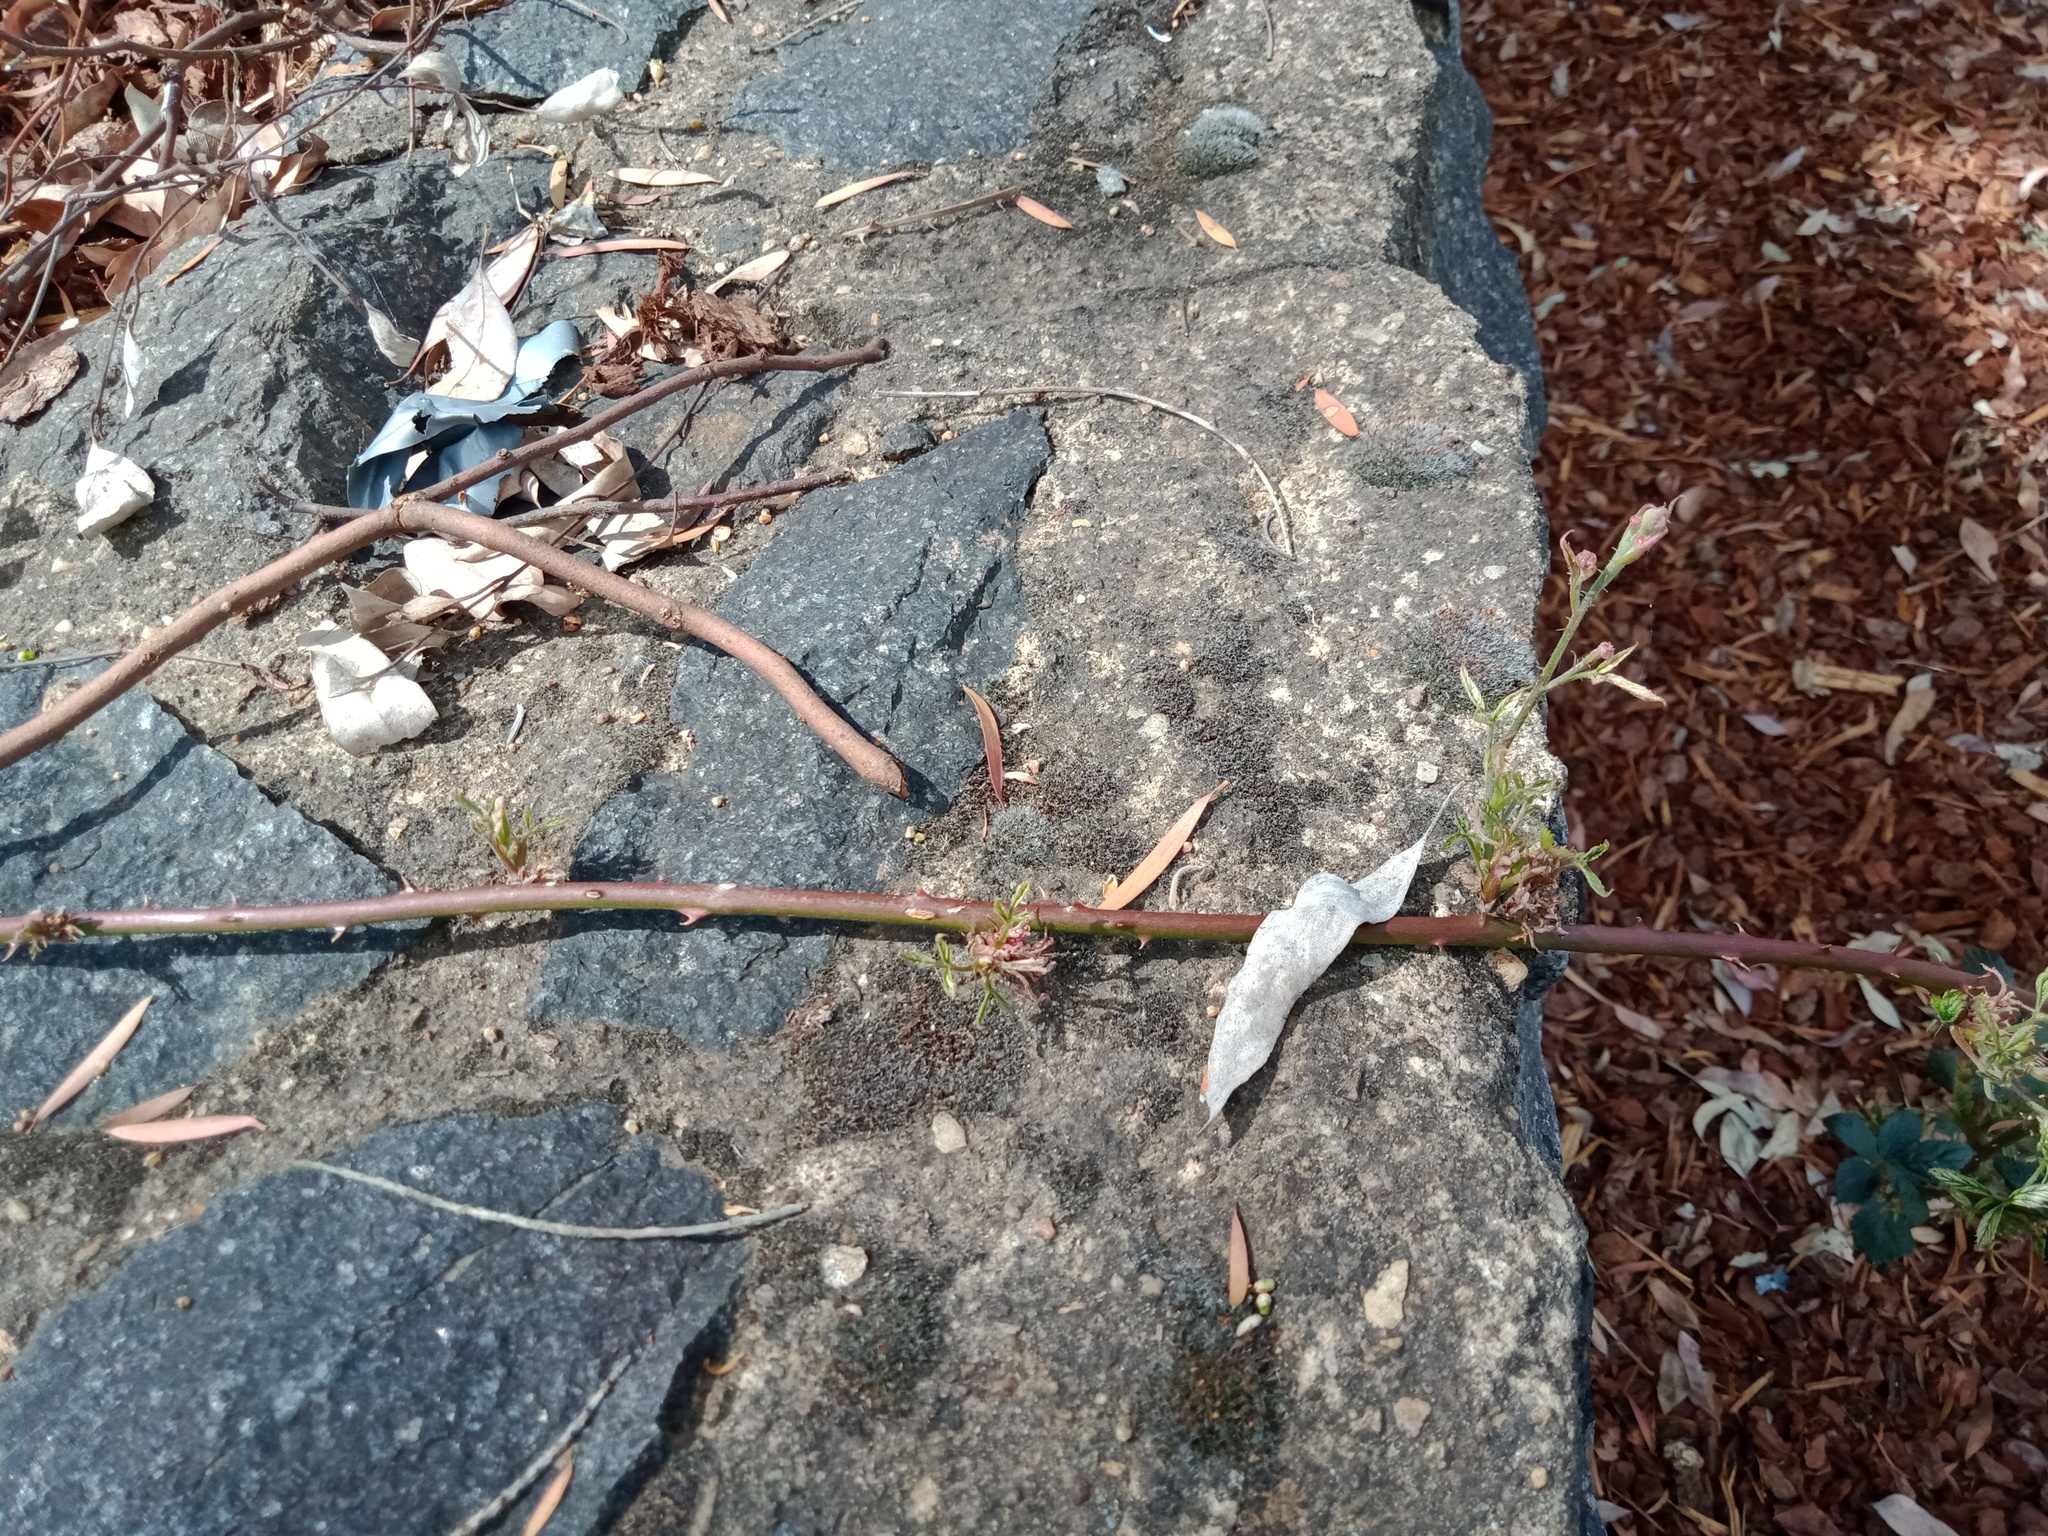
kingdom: Plantae
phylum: Tracheophyta
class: Magnoliopsida
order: Rosales
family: Rosaceae
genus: Rubus
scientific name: Rubus
